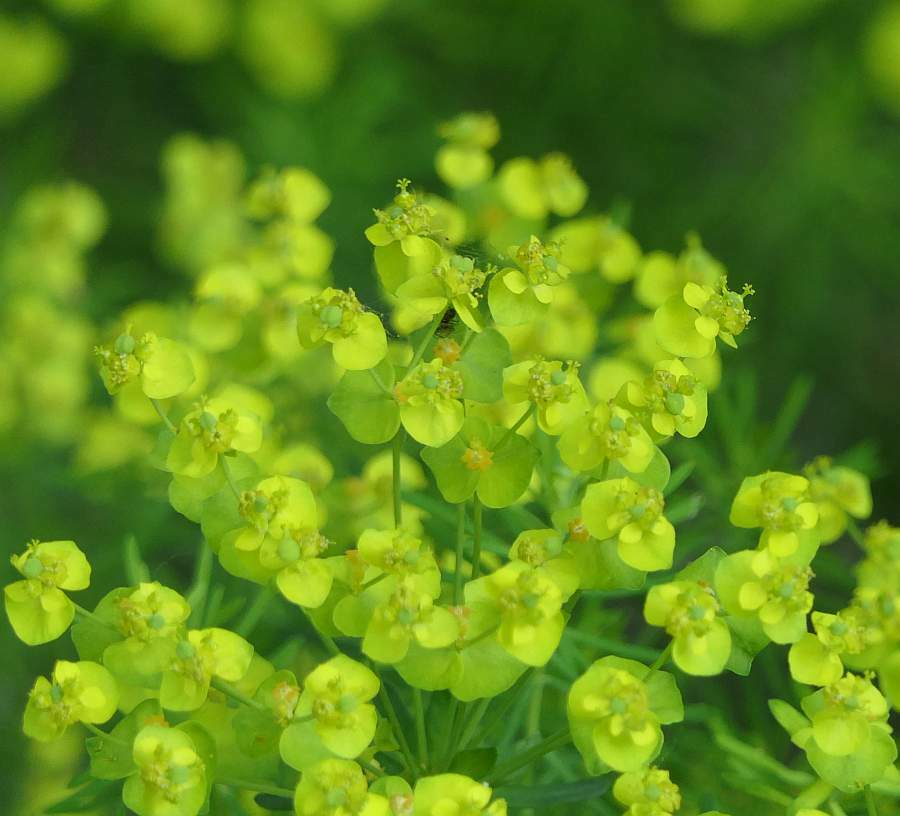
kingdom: Plantae
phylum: Tracheophyta
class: Magnoliopsida
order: Malpighiales
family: Euphorbiaceae
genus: Euphorbia
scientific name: Euphorbia cyparissias
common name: Cypress spurge
